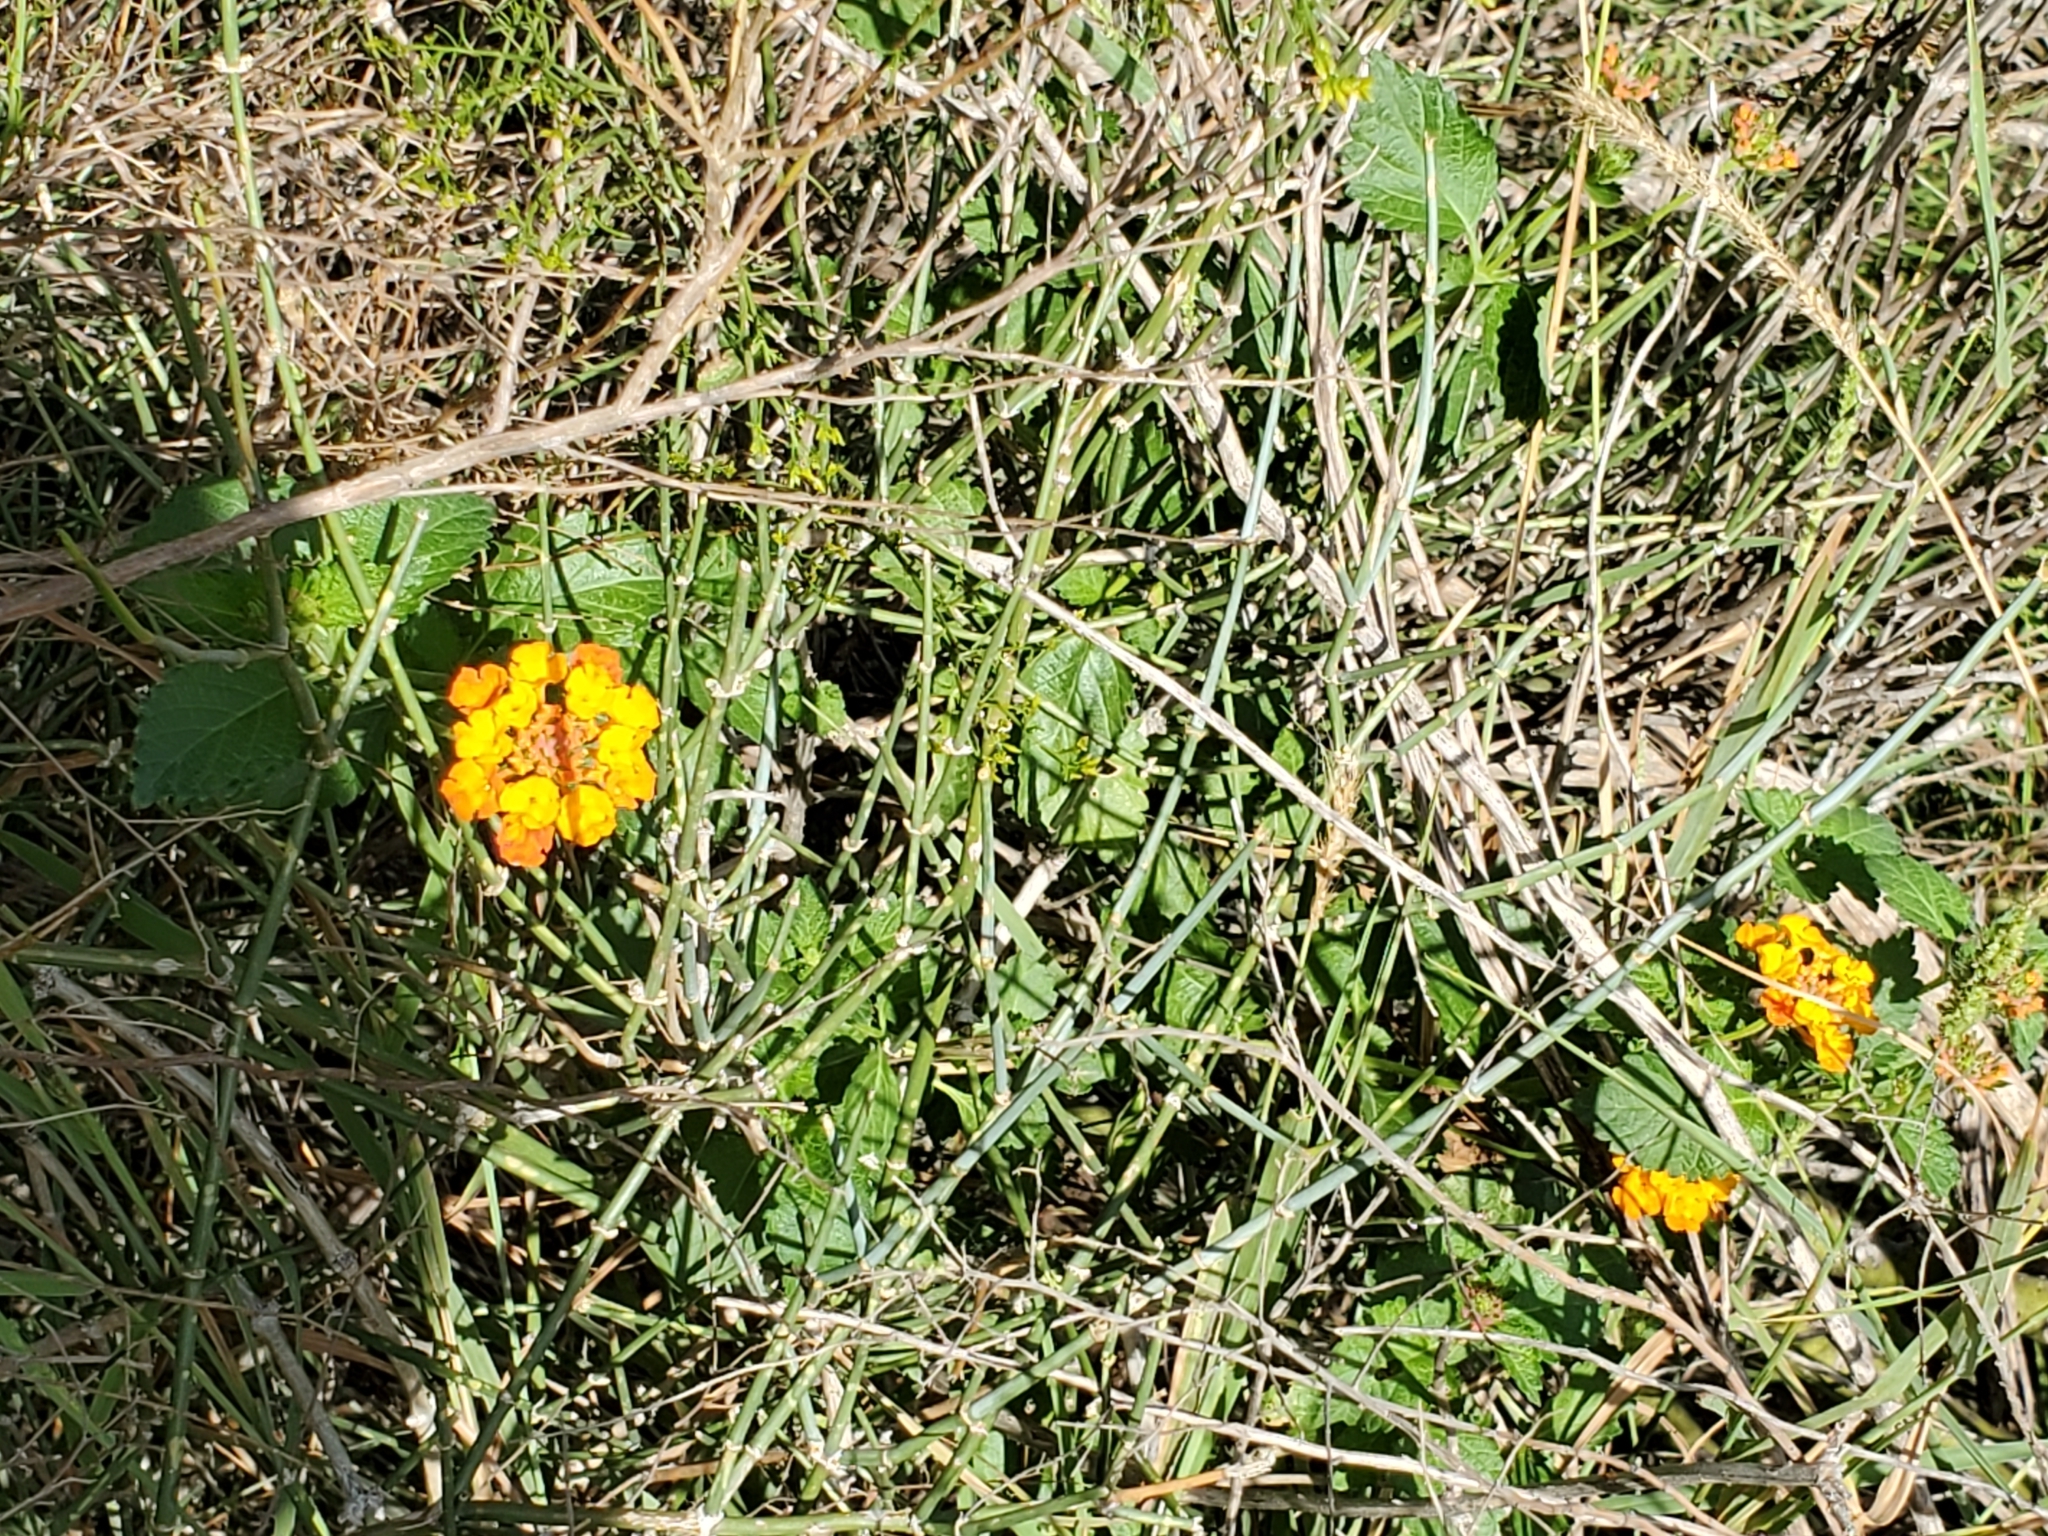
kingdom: Plantae
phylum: Tracheophyta
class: Magnoliopsida
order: Lamiales
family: Verbenaceae
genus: Lantana
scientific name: Lantana urticoides
